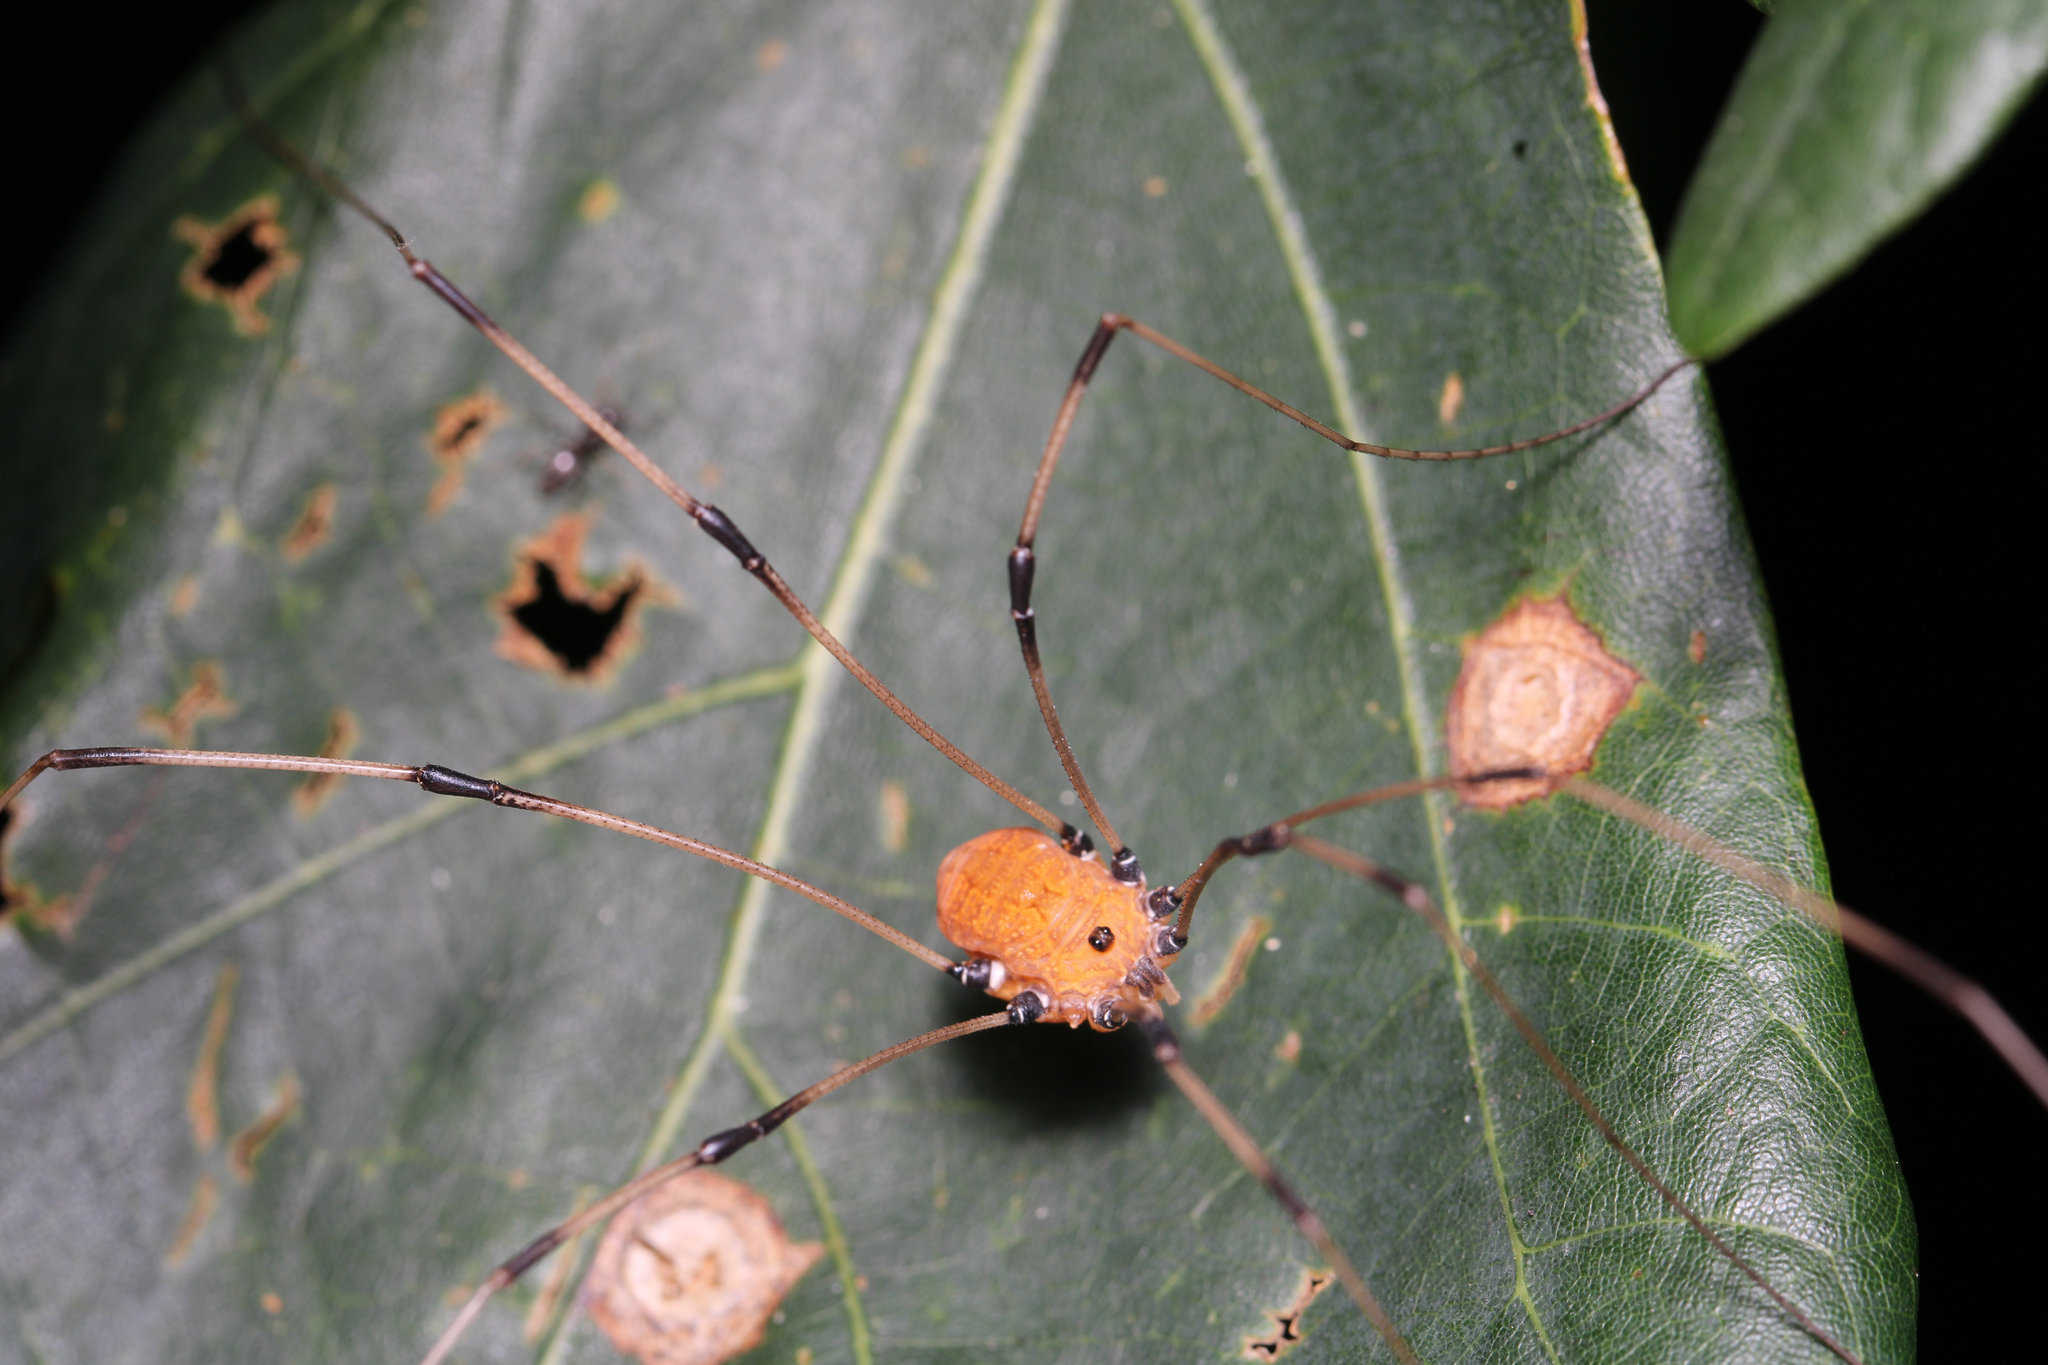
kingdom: Animalia
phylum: Arthropoda
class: Arachnida
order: Opiliones
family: Sclerosomatidae
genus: Leiobunum
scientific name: Leiobunum ventricosum
